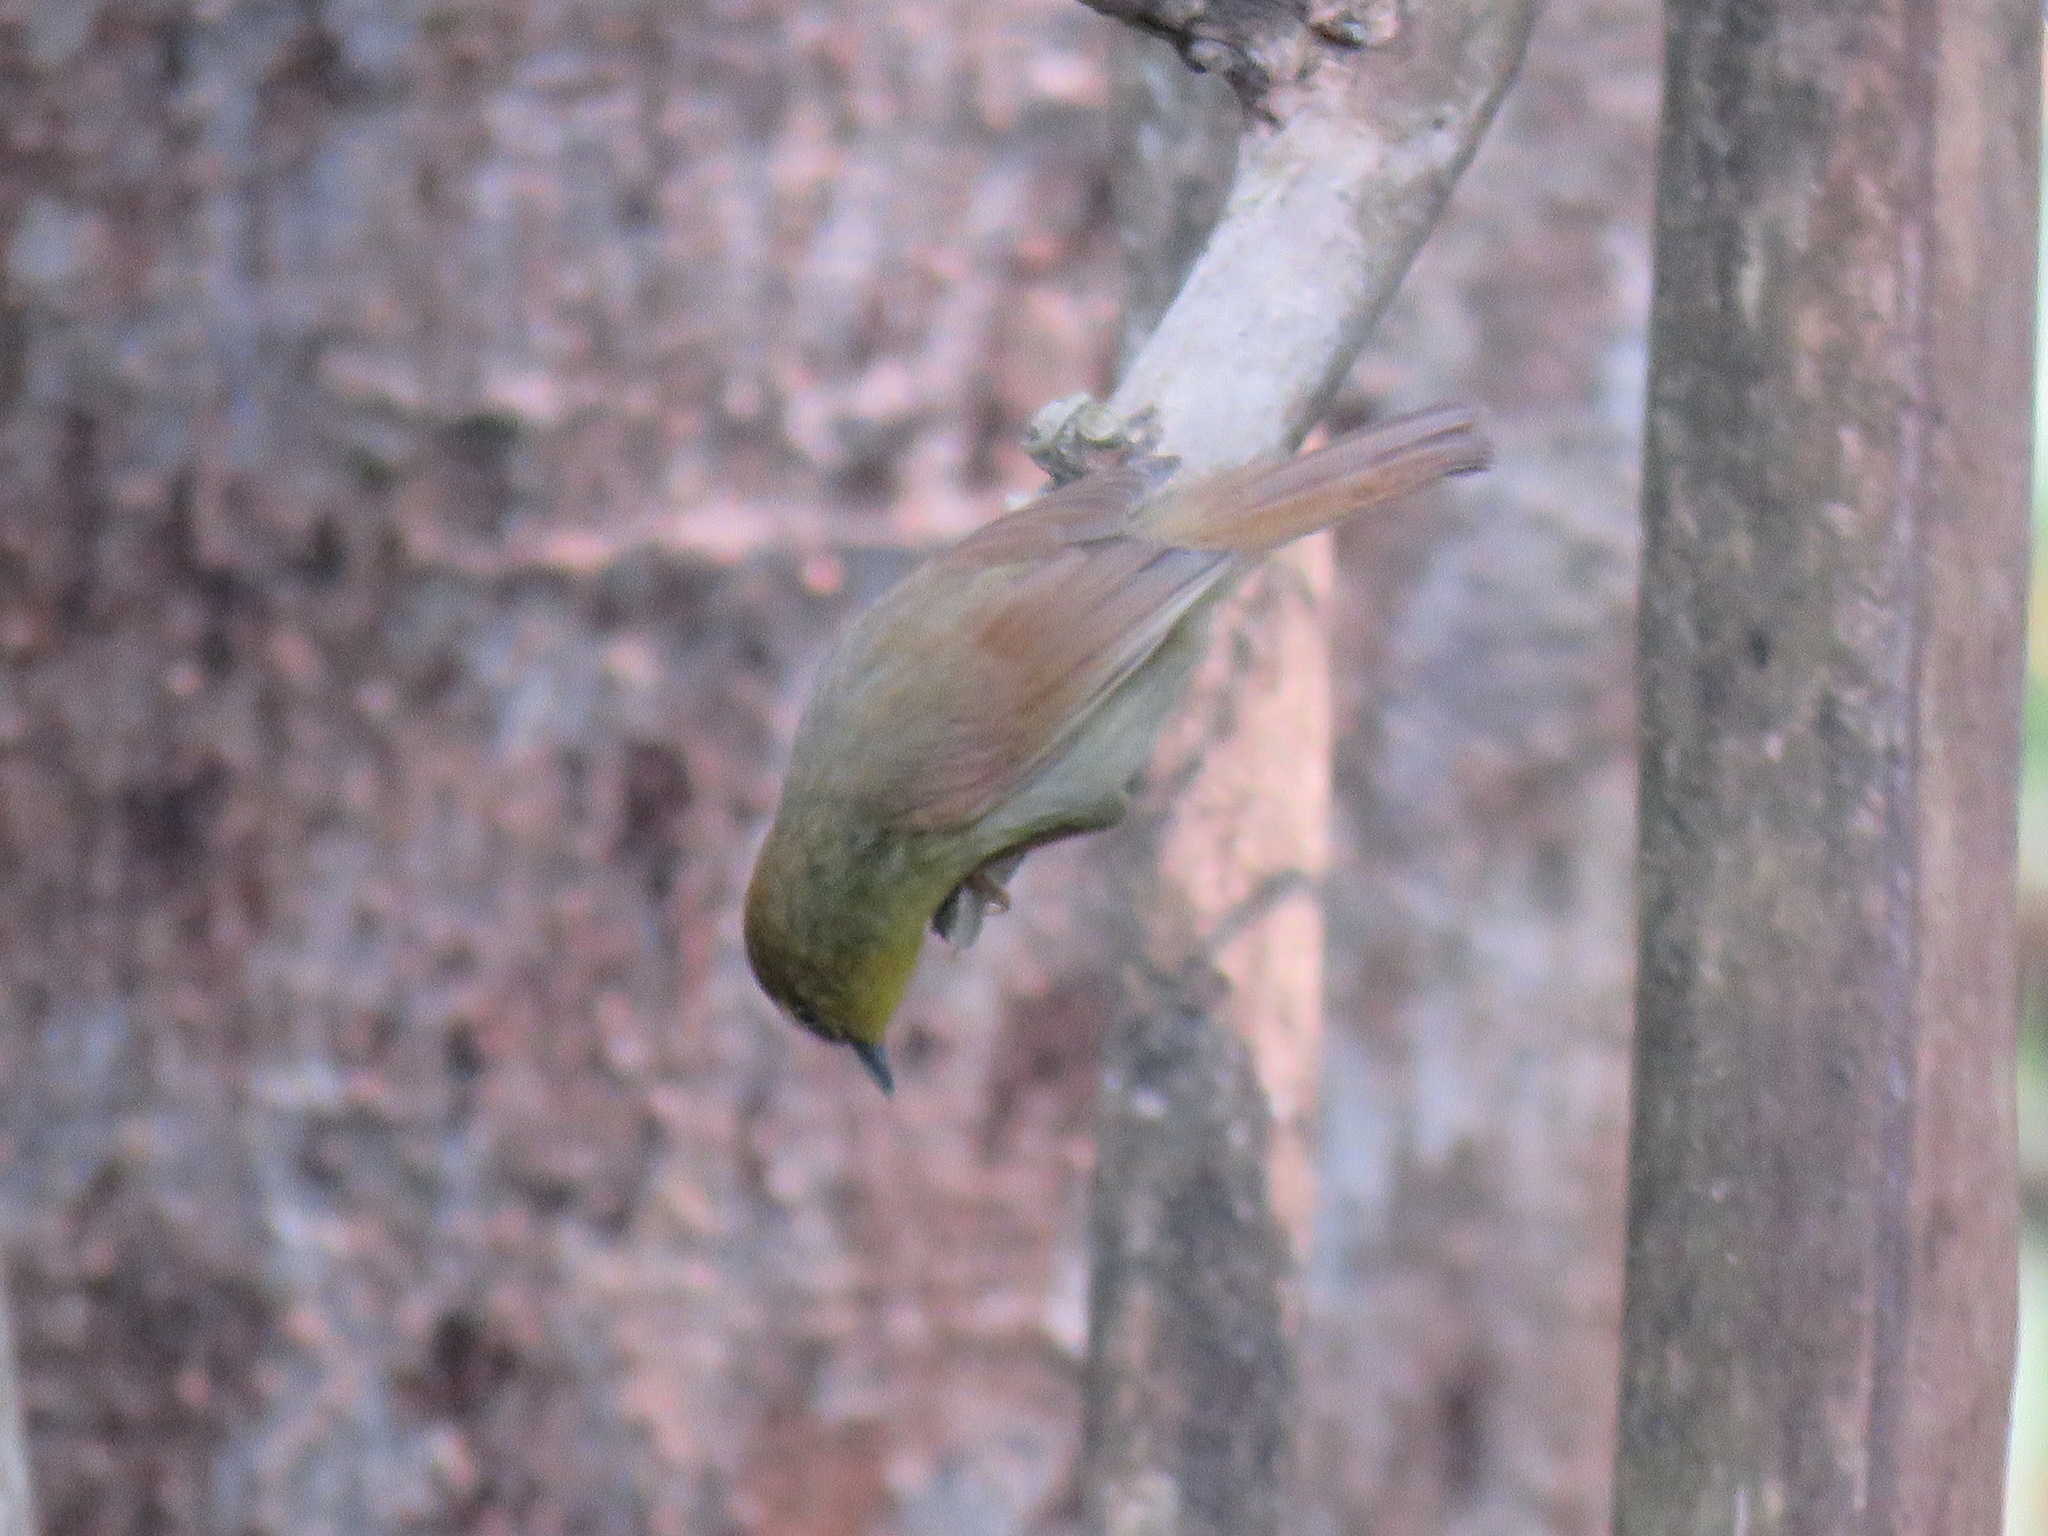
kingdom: Animalia
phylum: Chordata
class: Aves
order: Passeriformes
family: Timaliidae
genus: Macronus
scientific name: Macronus gularis
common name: Striped tit-babbler
